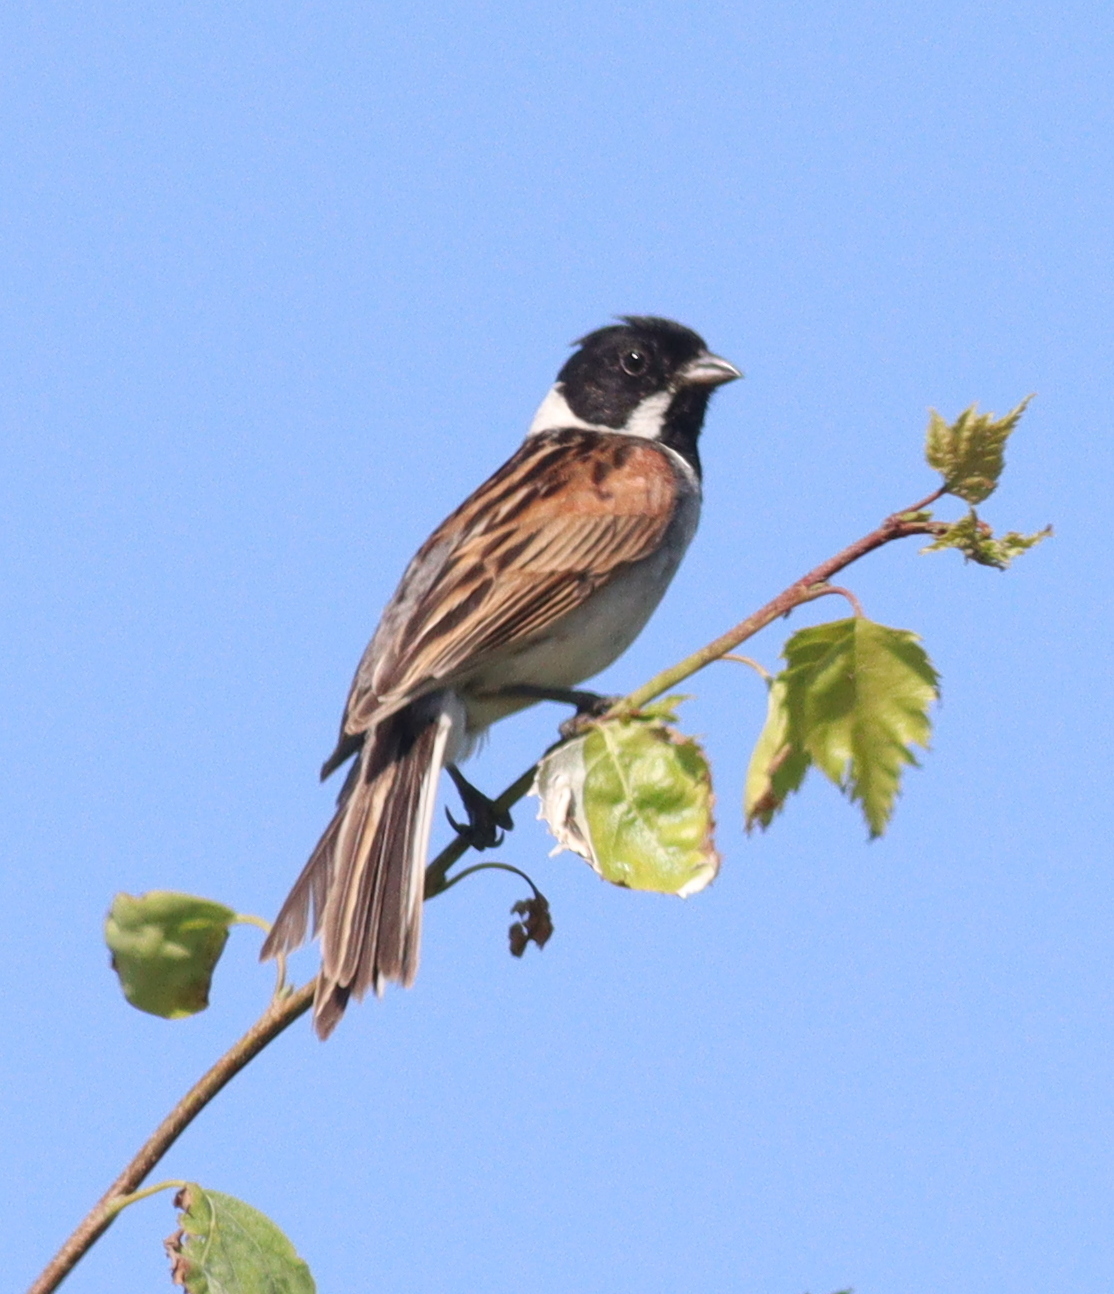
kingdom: Animalia
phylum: Chordata
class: Aves
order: Passeriformes
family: Emberizidae
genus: Emberiza
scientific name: Emberiza schoeniclus
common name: Reed bunting
